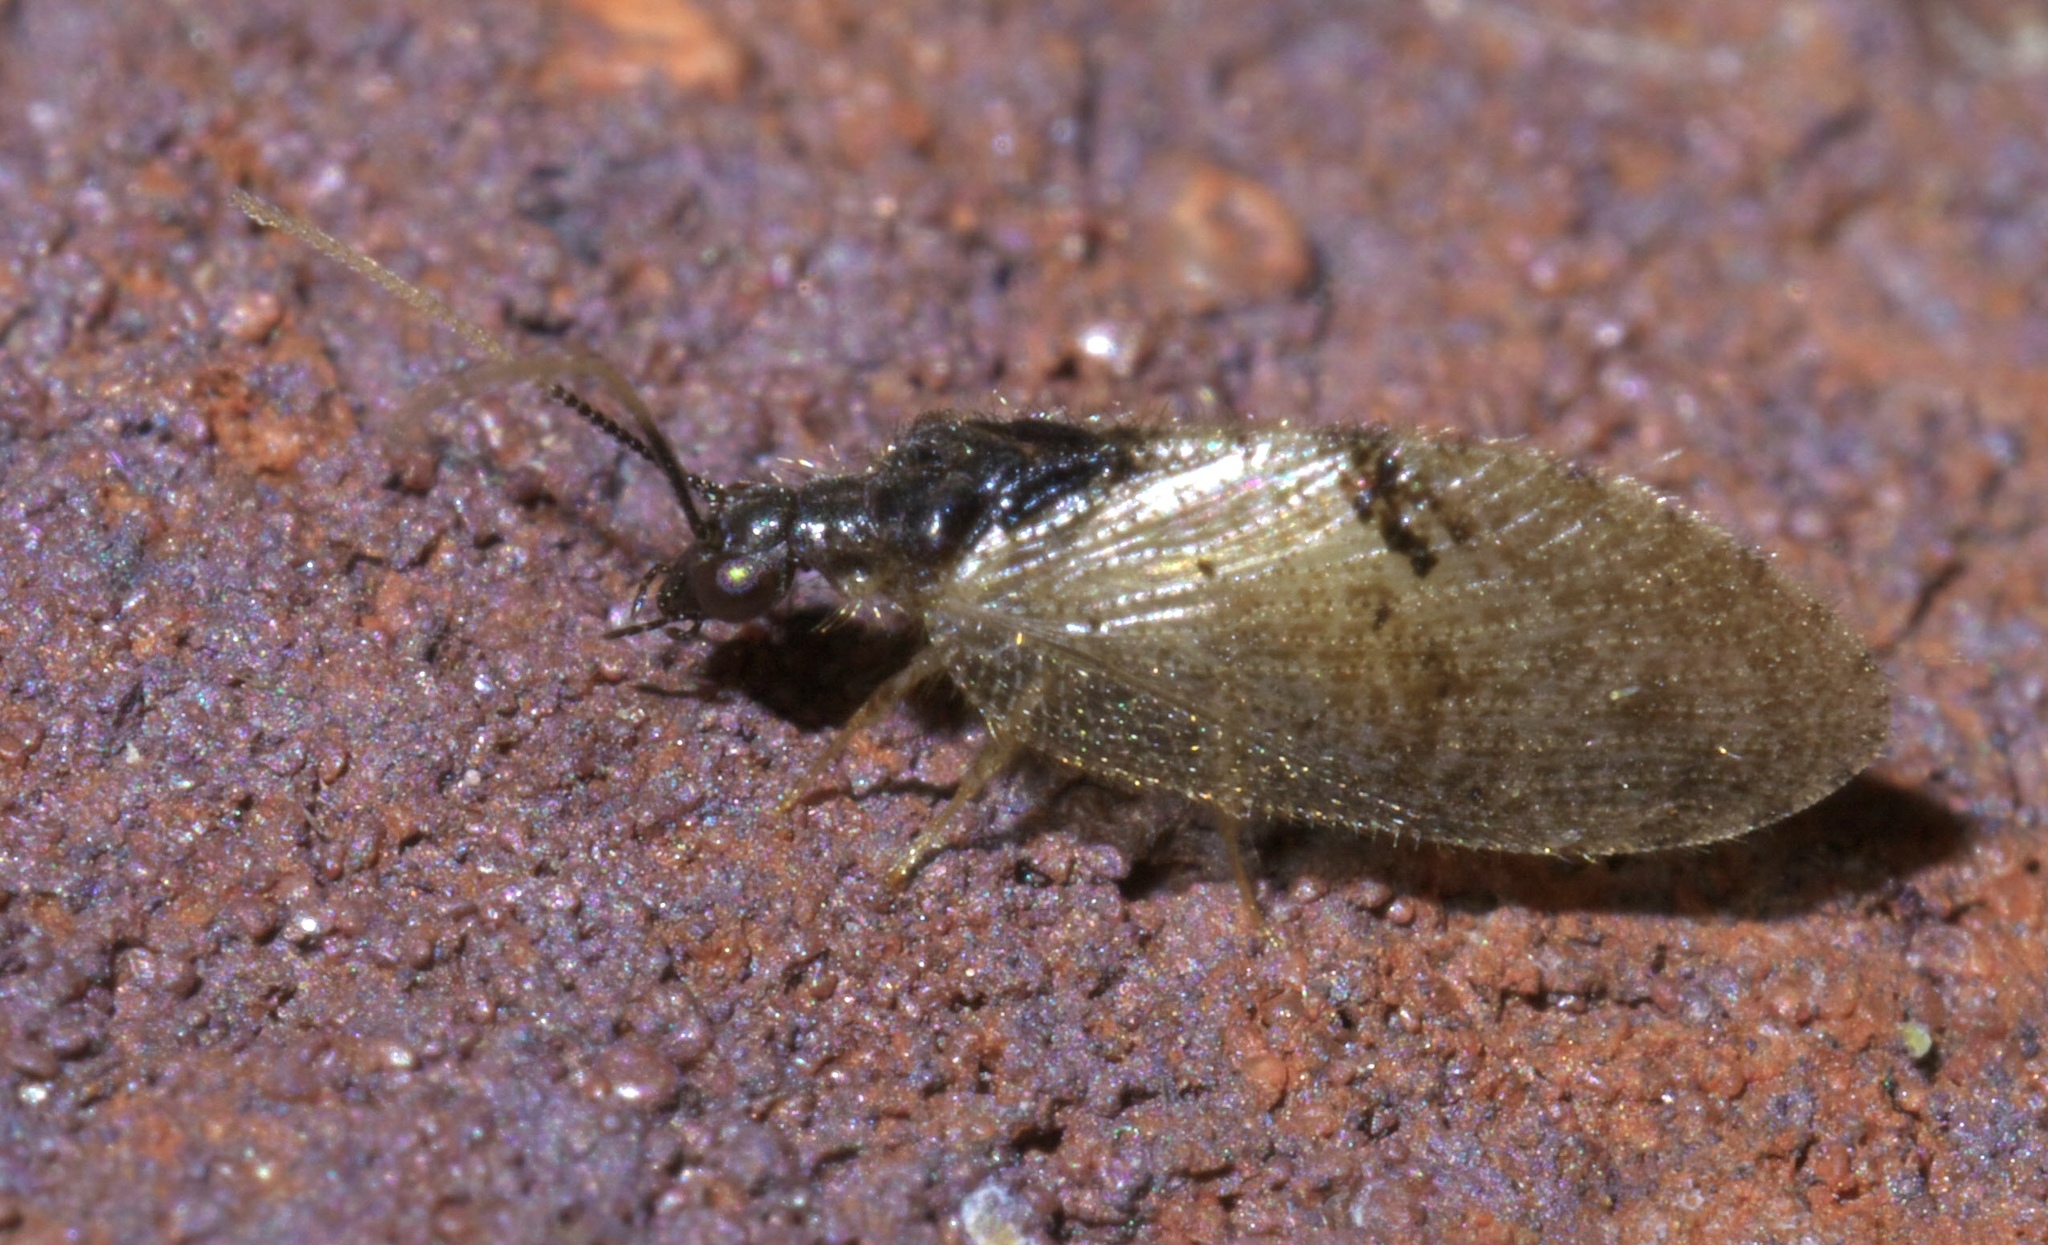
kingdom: Animalia
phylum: Arthropoda
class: Insecta
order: Neuroptera
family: Hemerobiidae
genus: Sympherobius
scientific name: Sympherobius barberi
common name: Brown lacewing
